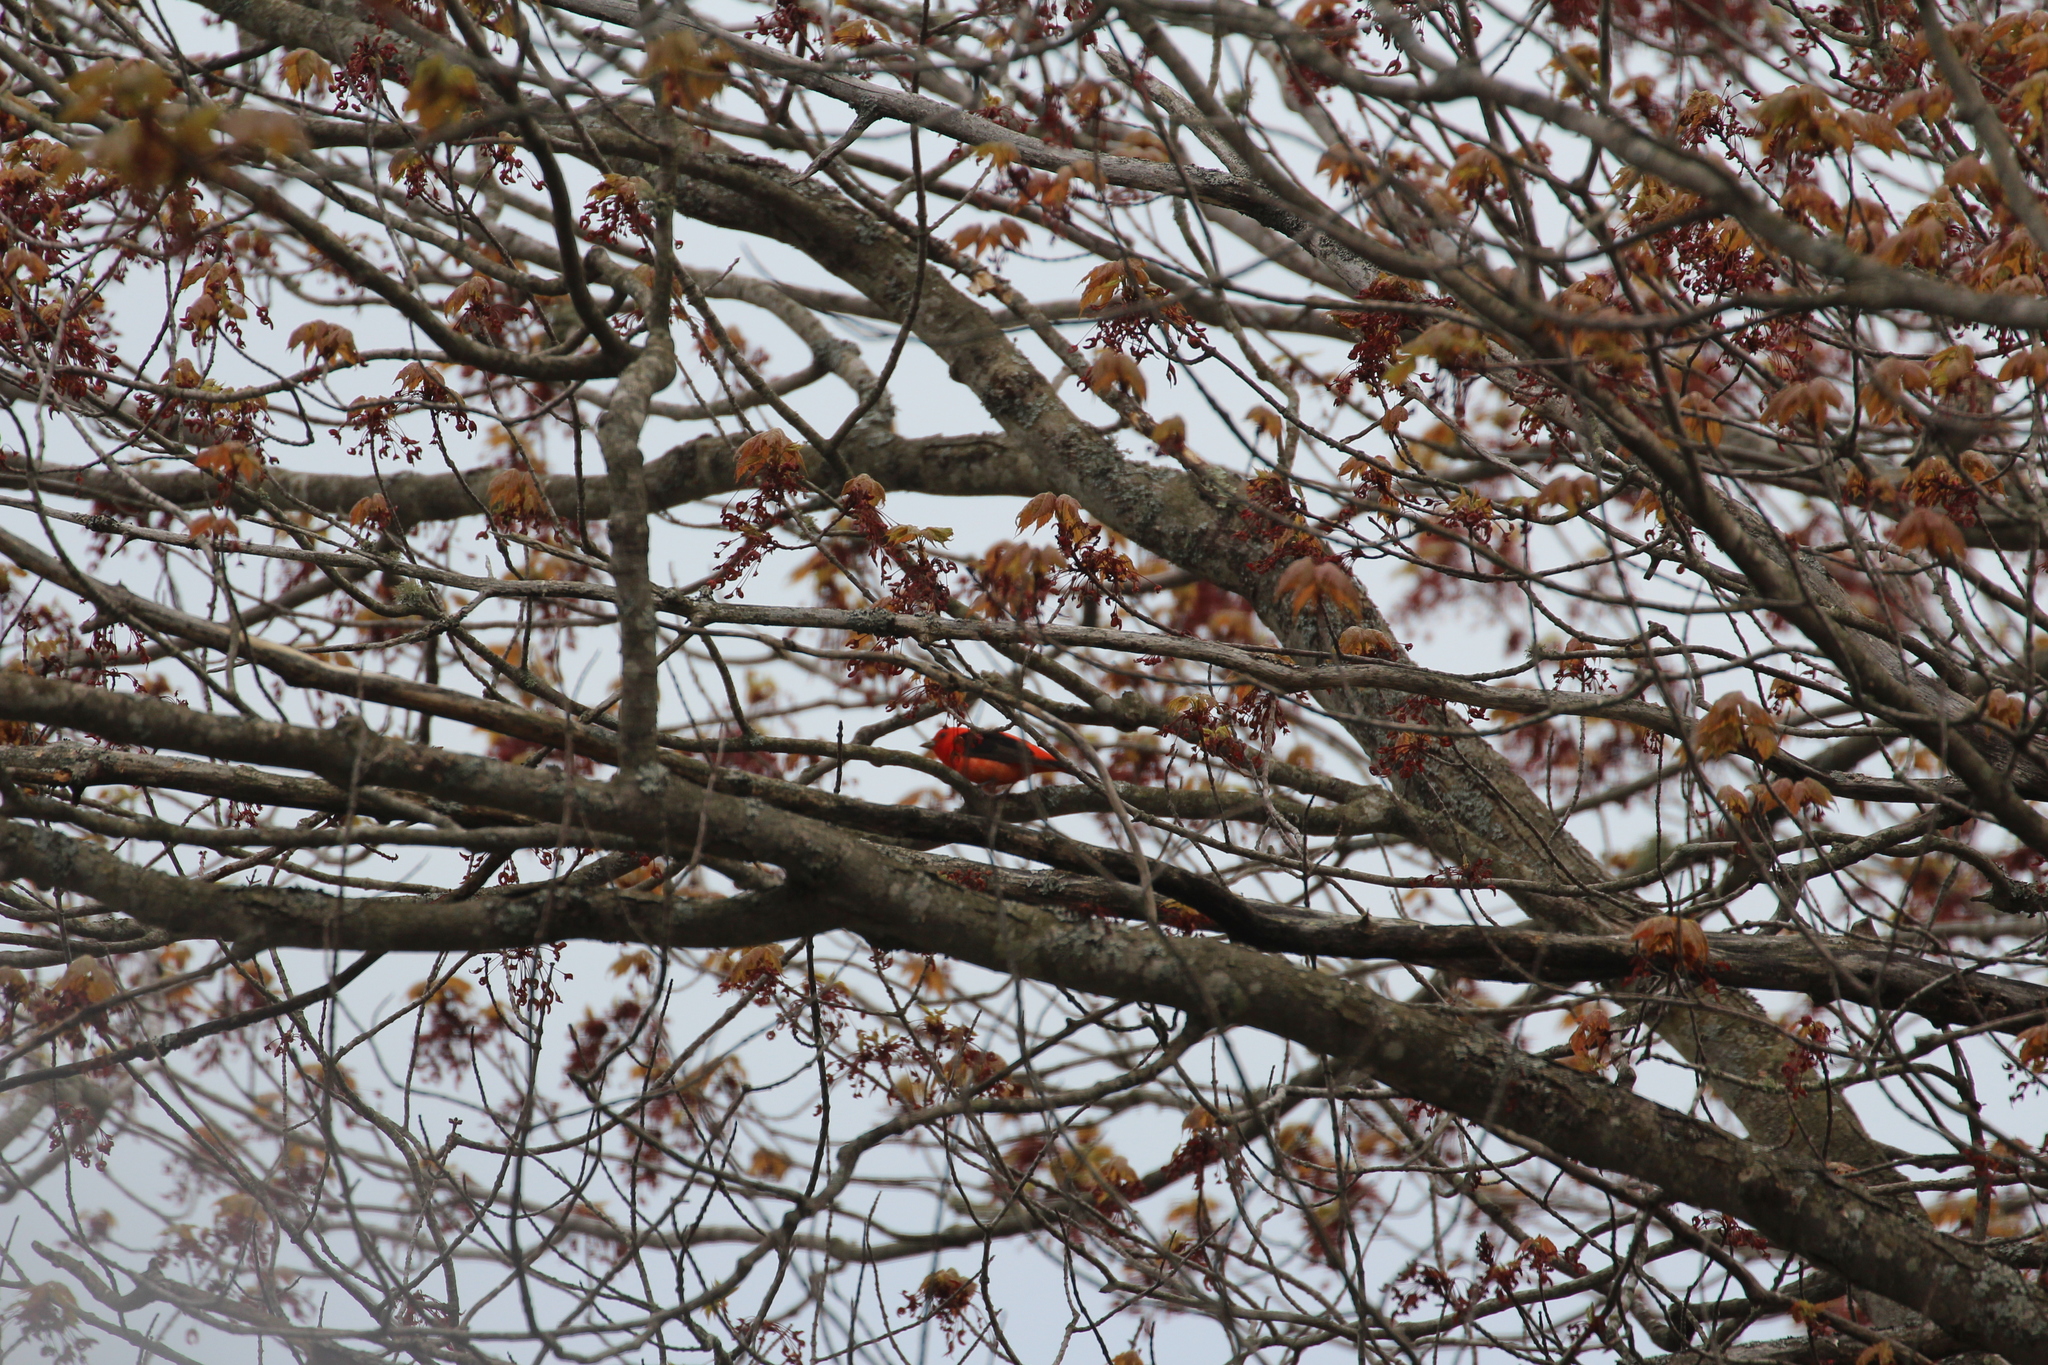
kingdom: Animalia
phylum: Chordata
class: Aves
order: Passeriformes
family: Cardinalidae
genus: Piranga
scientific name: Piranga olivacea
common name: Scarlet tanager
